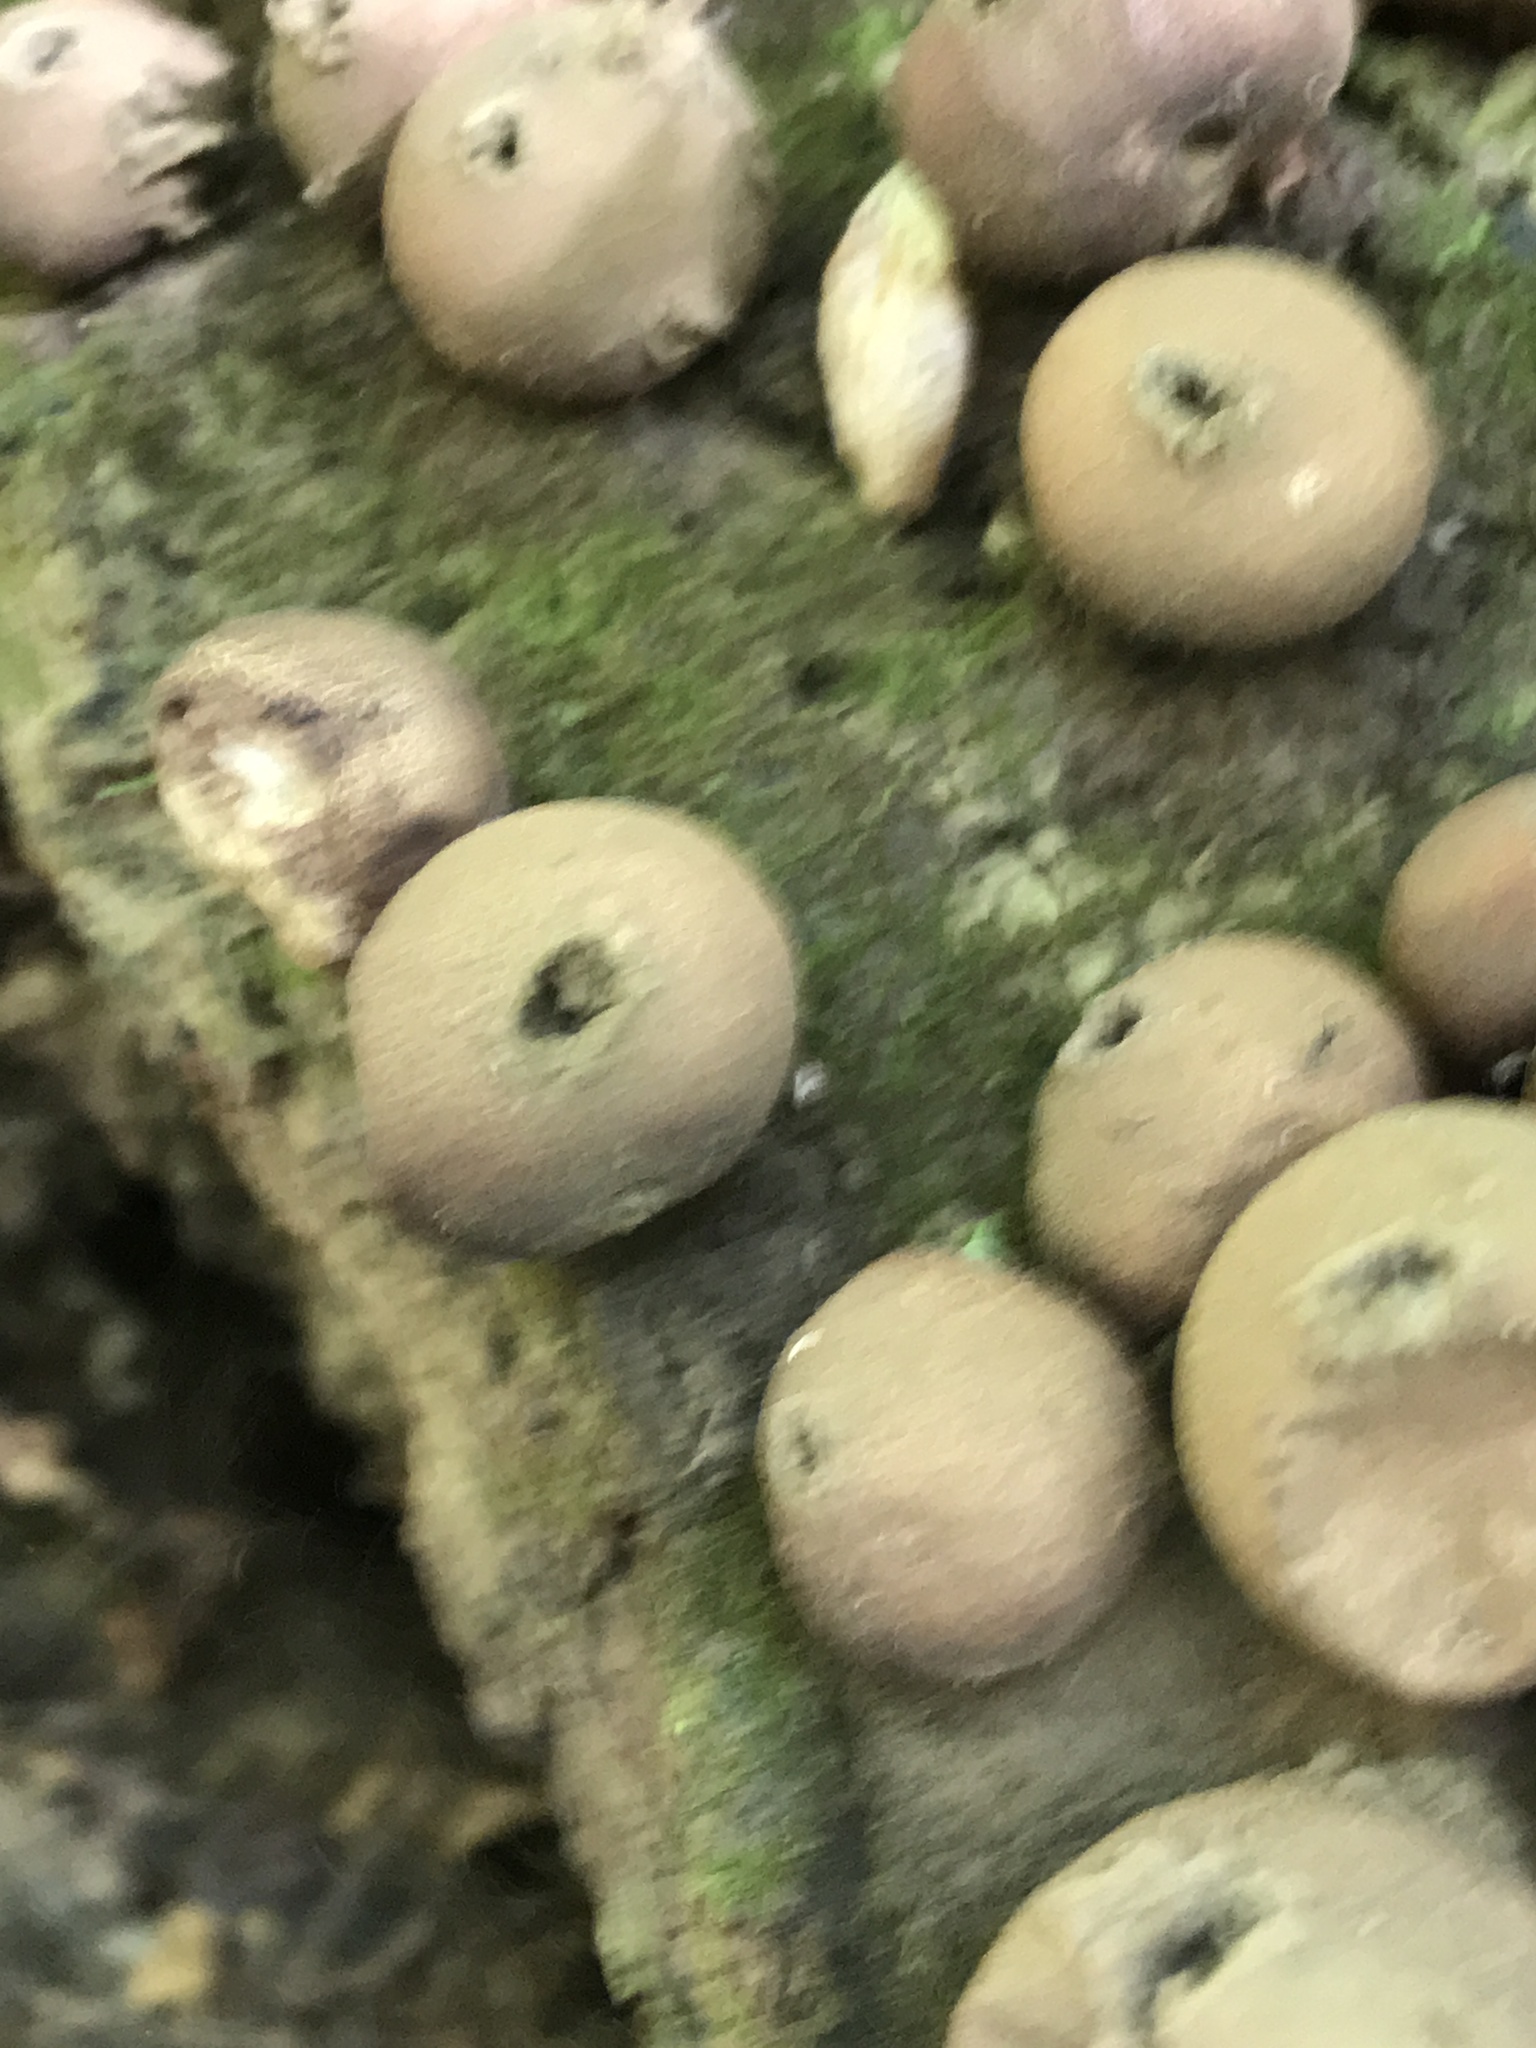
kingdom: Fungi
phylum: Basidiomycota
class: Agaricomycetes
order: Agaricales
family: Lycoperdaceae
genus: Apioperdon
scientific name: Apioperdon pyriforme
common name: Pear-shaped puffball
